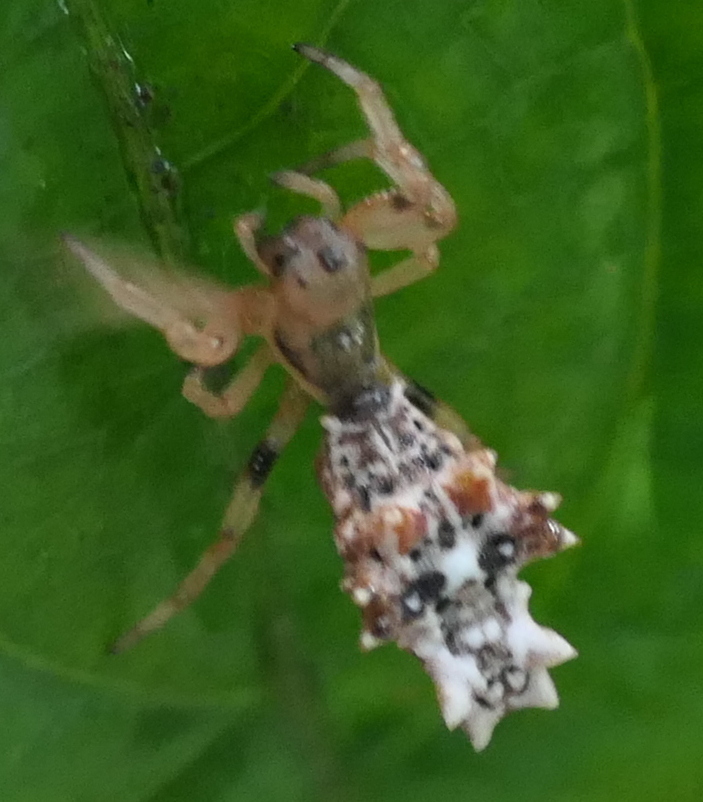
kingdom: Animalia
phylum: Arthropoda
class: Arachnida
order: Araneae
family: Araneidae
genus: Micrathena
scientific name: Micrathena horrida
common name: Orb weavers
